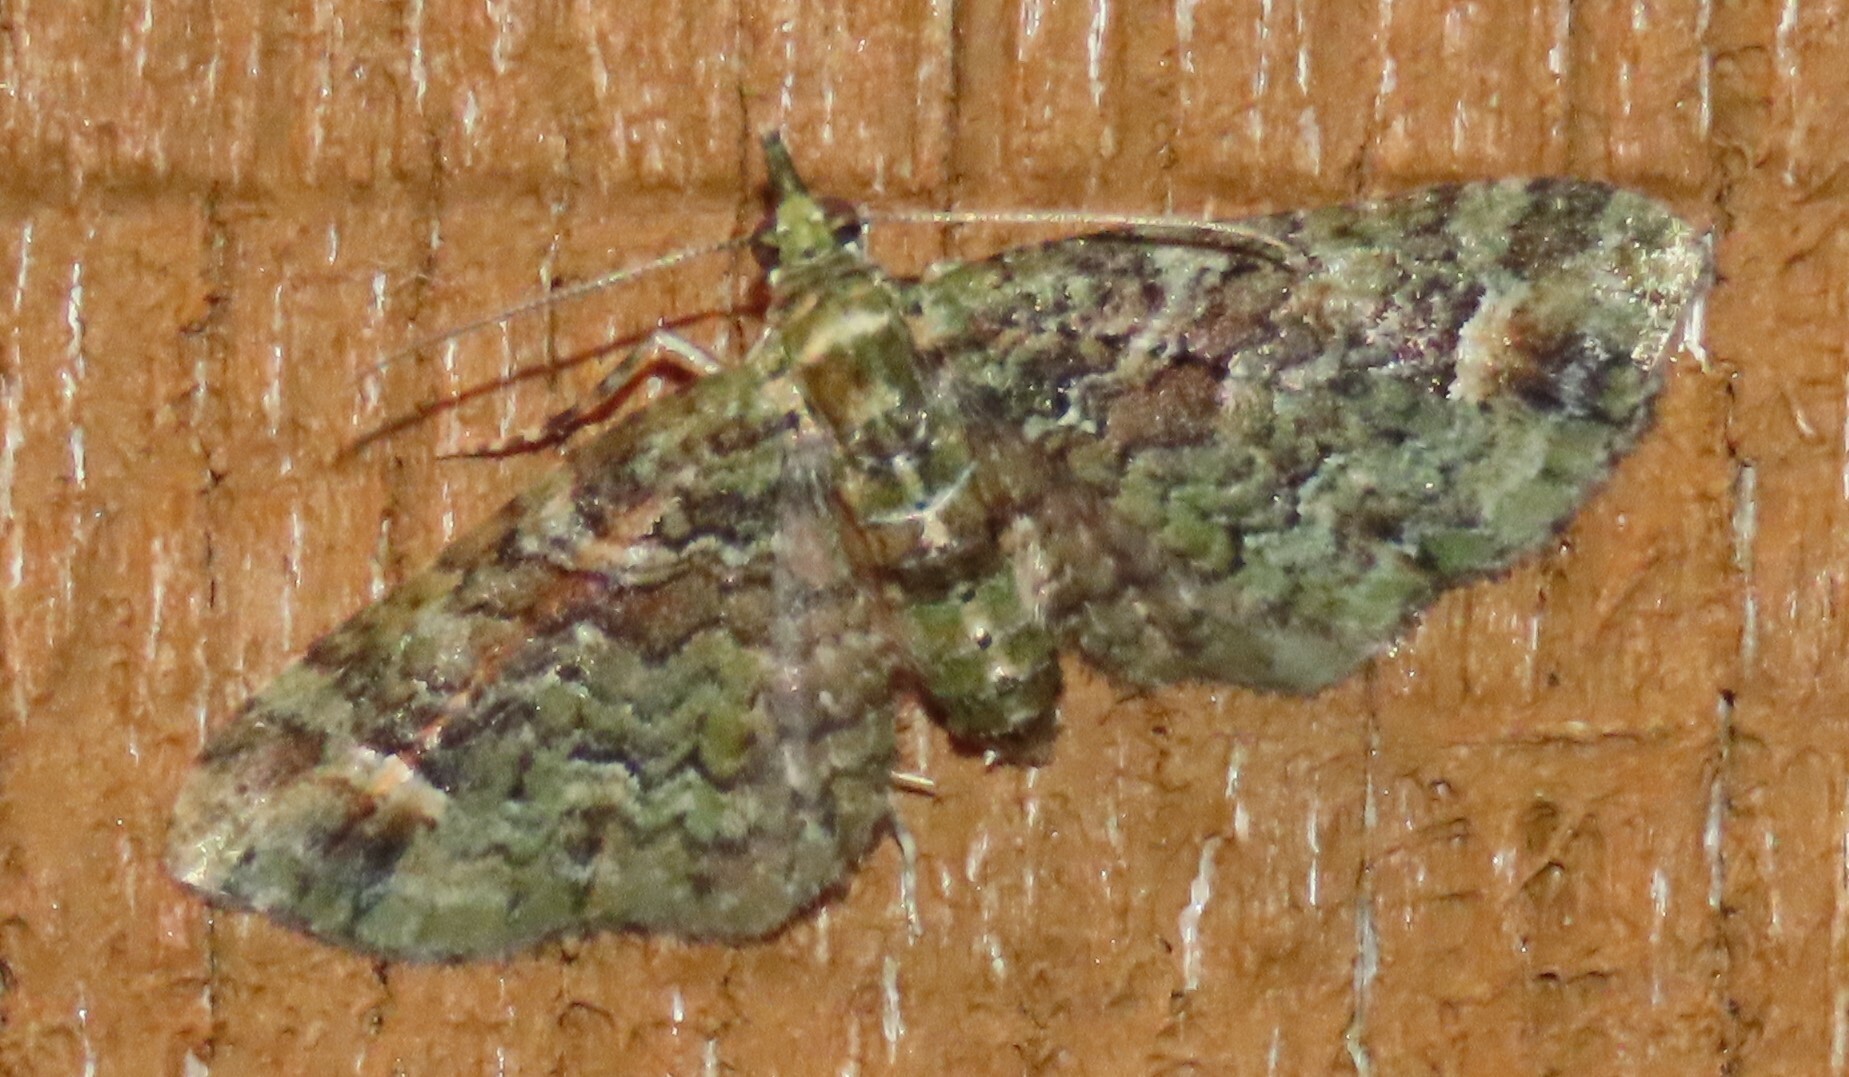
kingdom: Animalia
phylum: Arthropoda
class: Insecta
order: Lepidoptera
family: Geometridae
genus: Idaea
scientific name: Idaea mutanda
